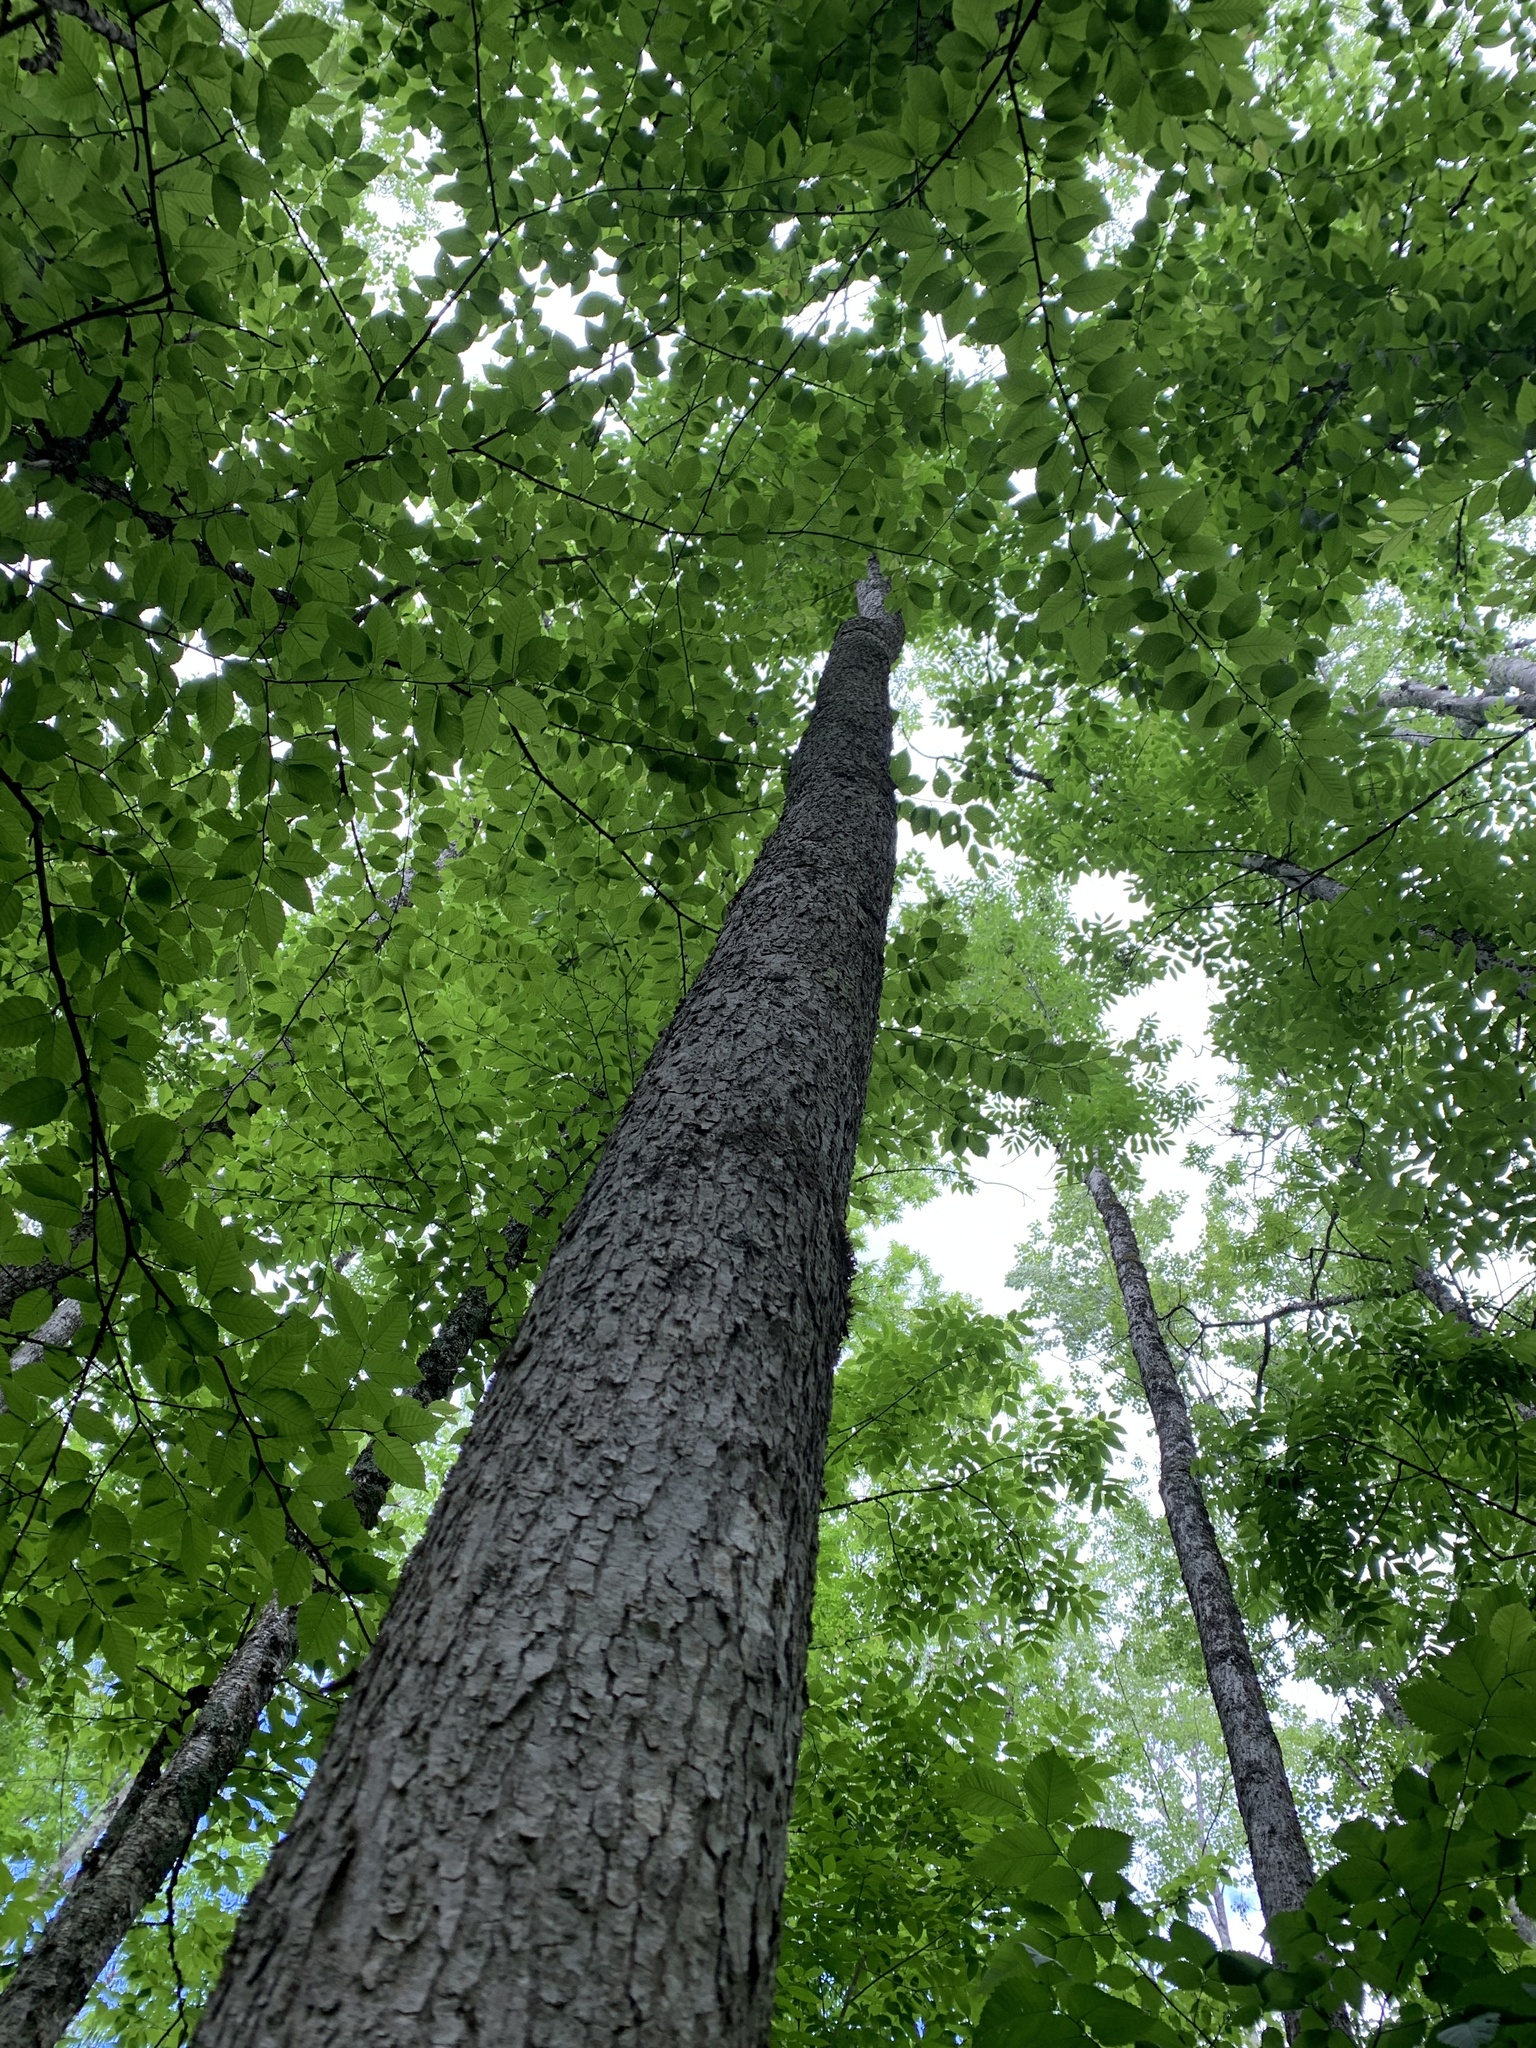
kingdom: Plantae
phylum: Tracheophyta
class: Magnoliopsida
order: Lamiales
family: Oleaceae
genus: Fraxinus
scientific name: Fraxinus nigra
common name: Black ash
